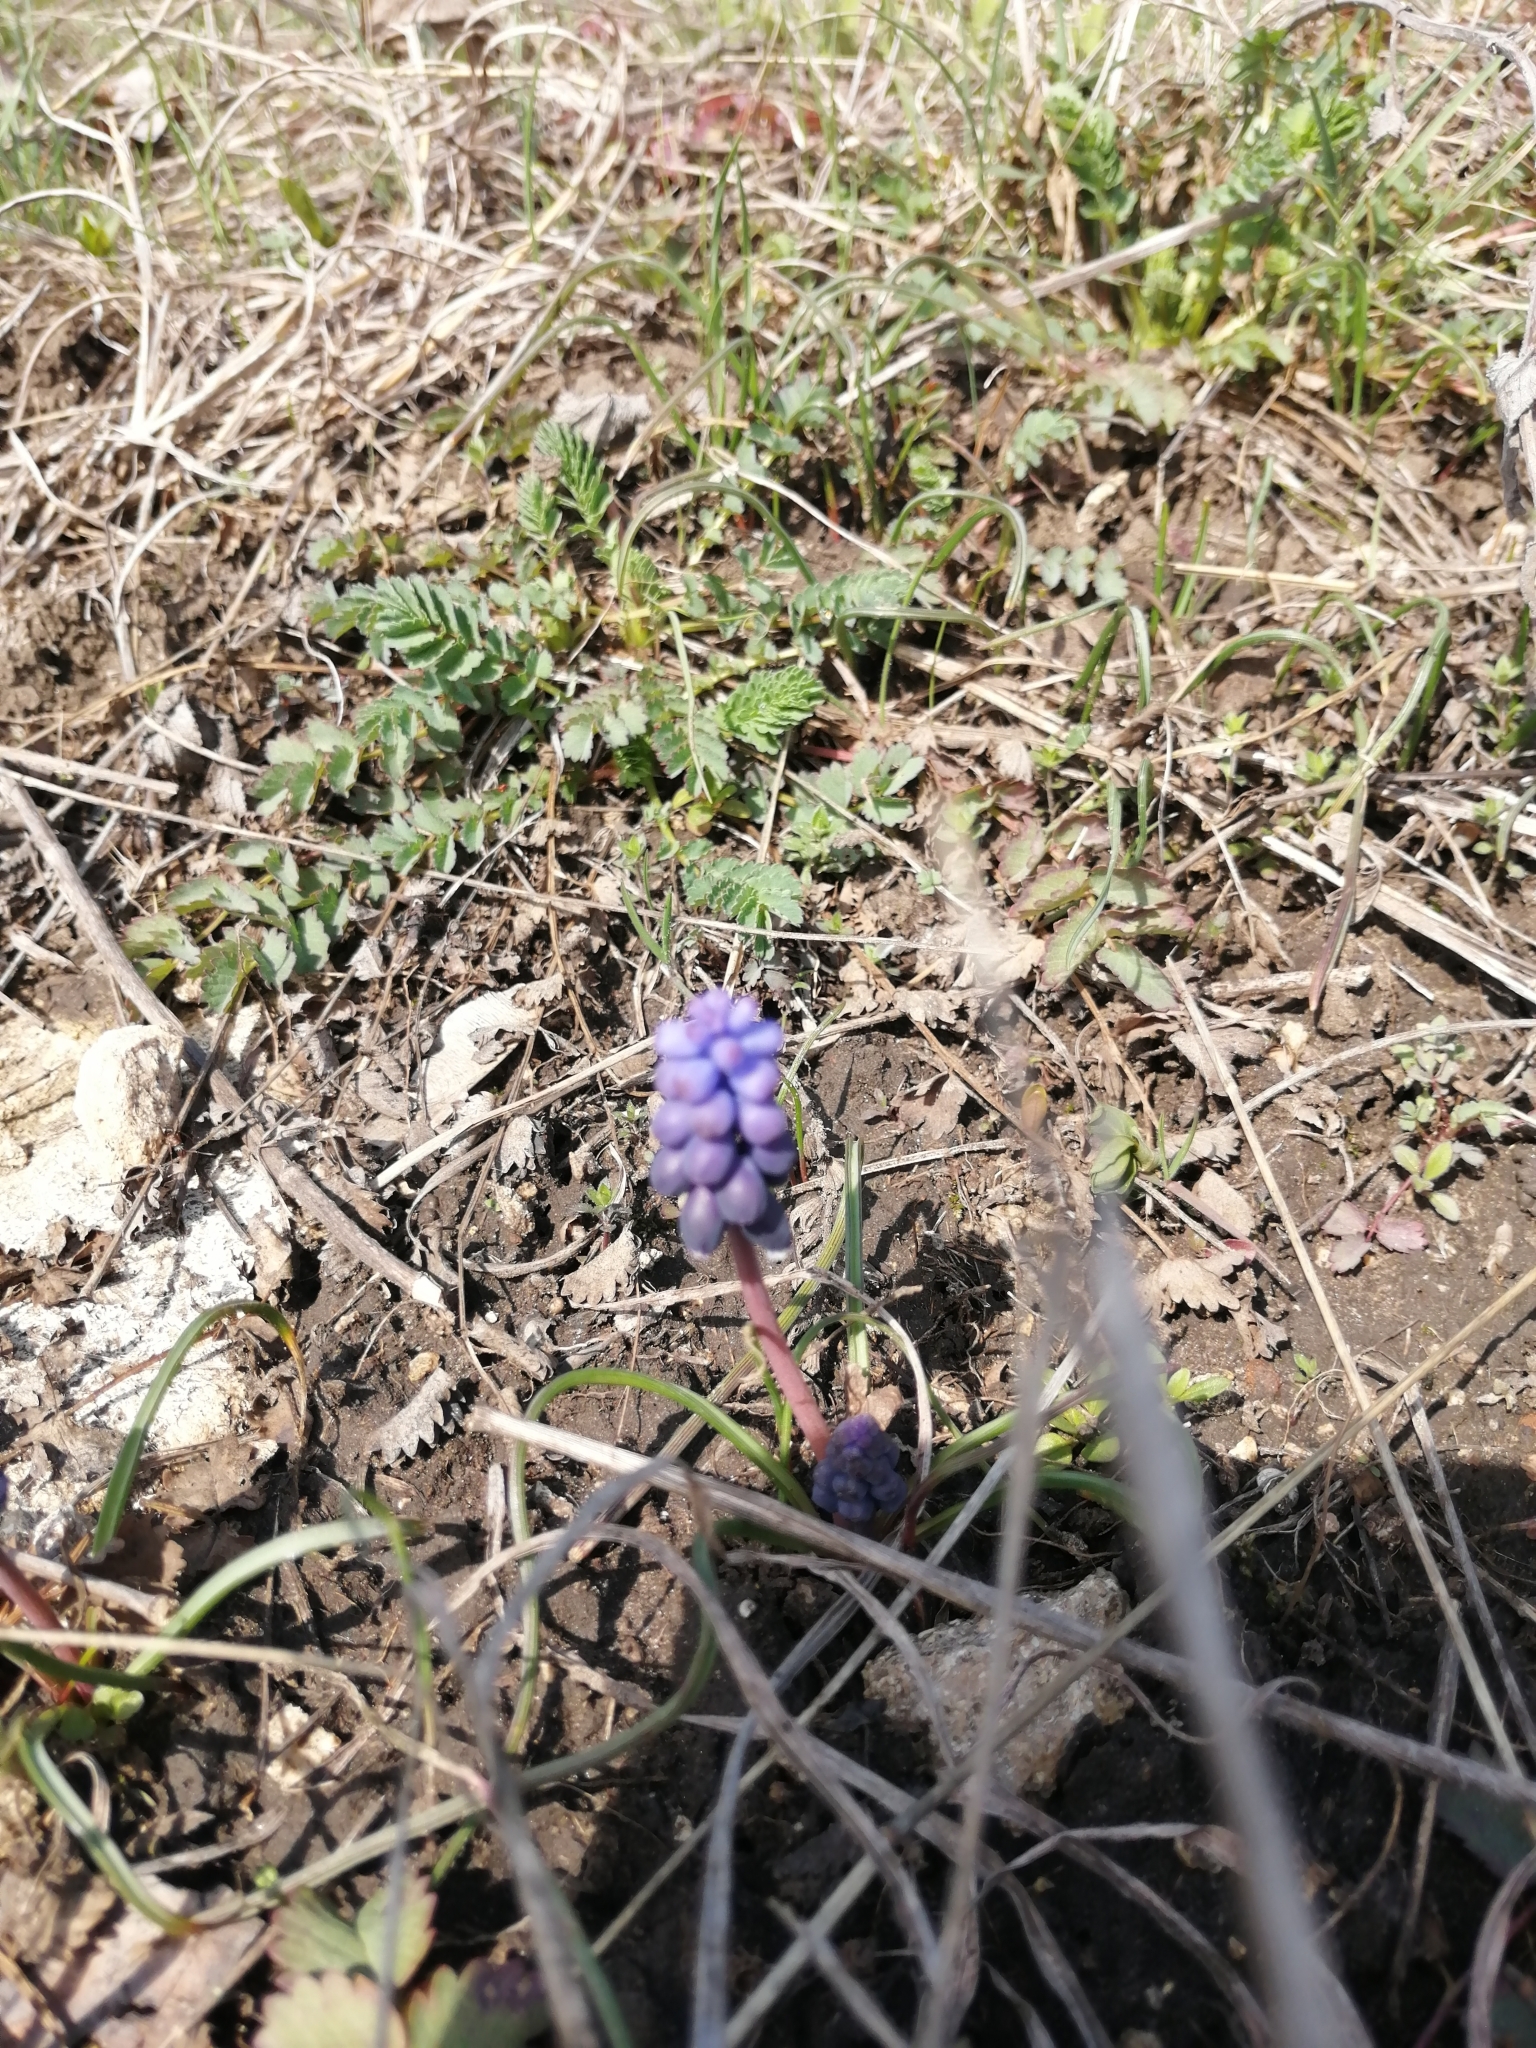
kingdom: Plantae
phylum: Tracheophyta
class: Liliopsida
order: Asparagales
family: Asparagaceae
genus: Muscari
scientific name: Muscari neglectum
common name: Grape-hyacinth
